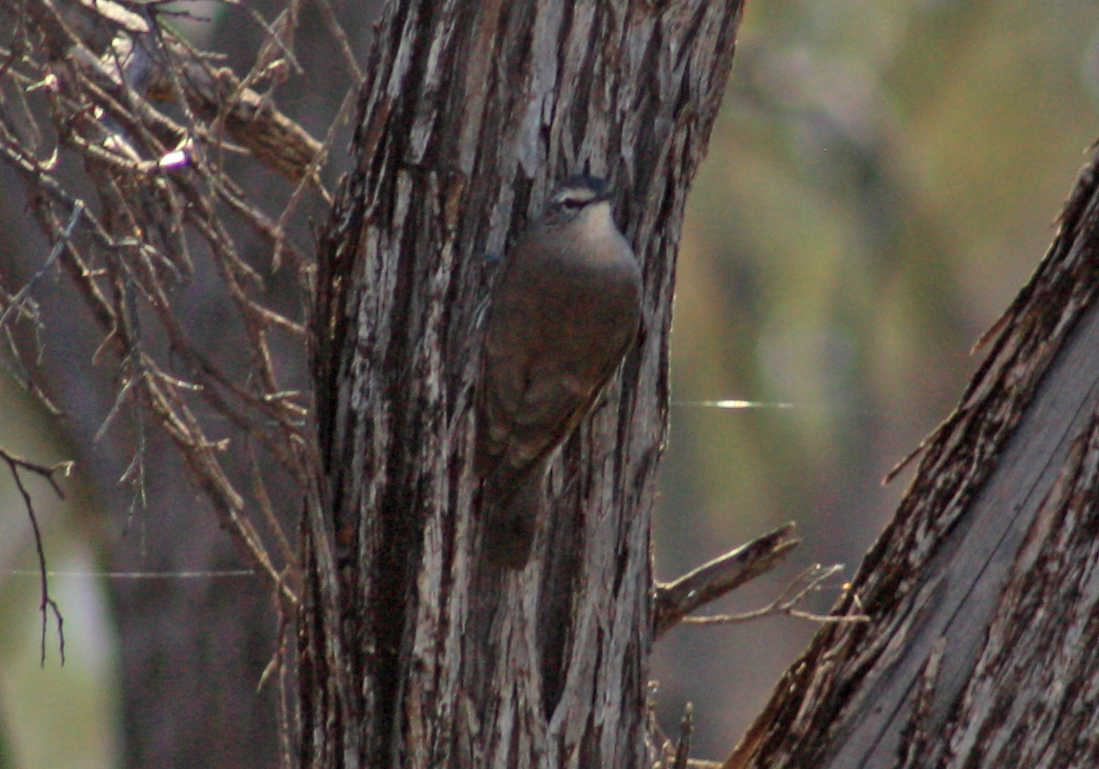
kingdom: Animalia
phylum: Chordata
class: Aves
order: Passeriformes
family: Climacteridae
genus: Climacteris
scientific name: Climacteris affinis
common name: White-browed treecreeper
